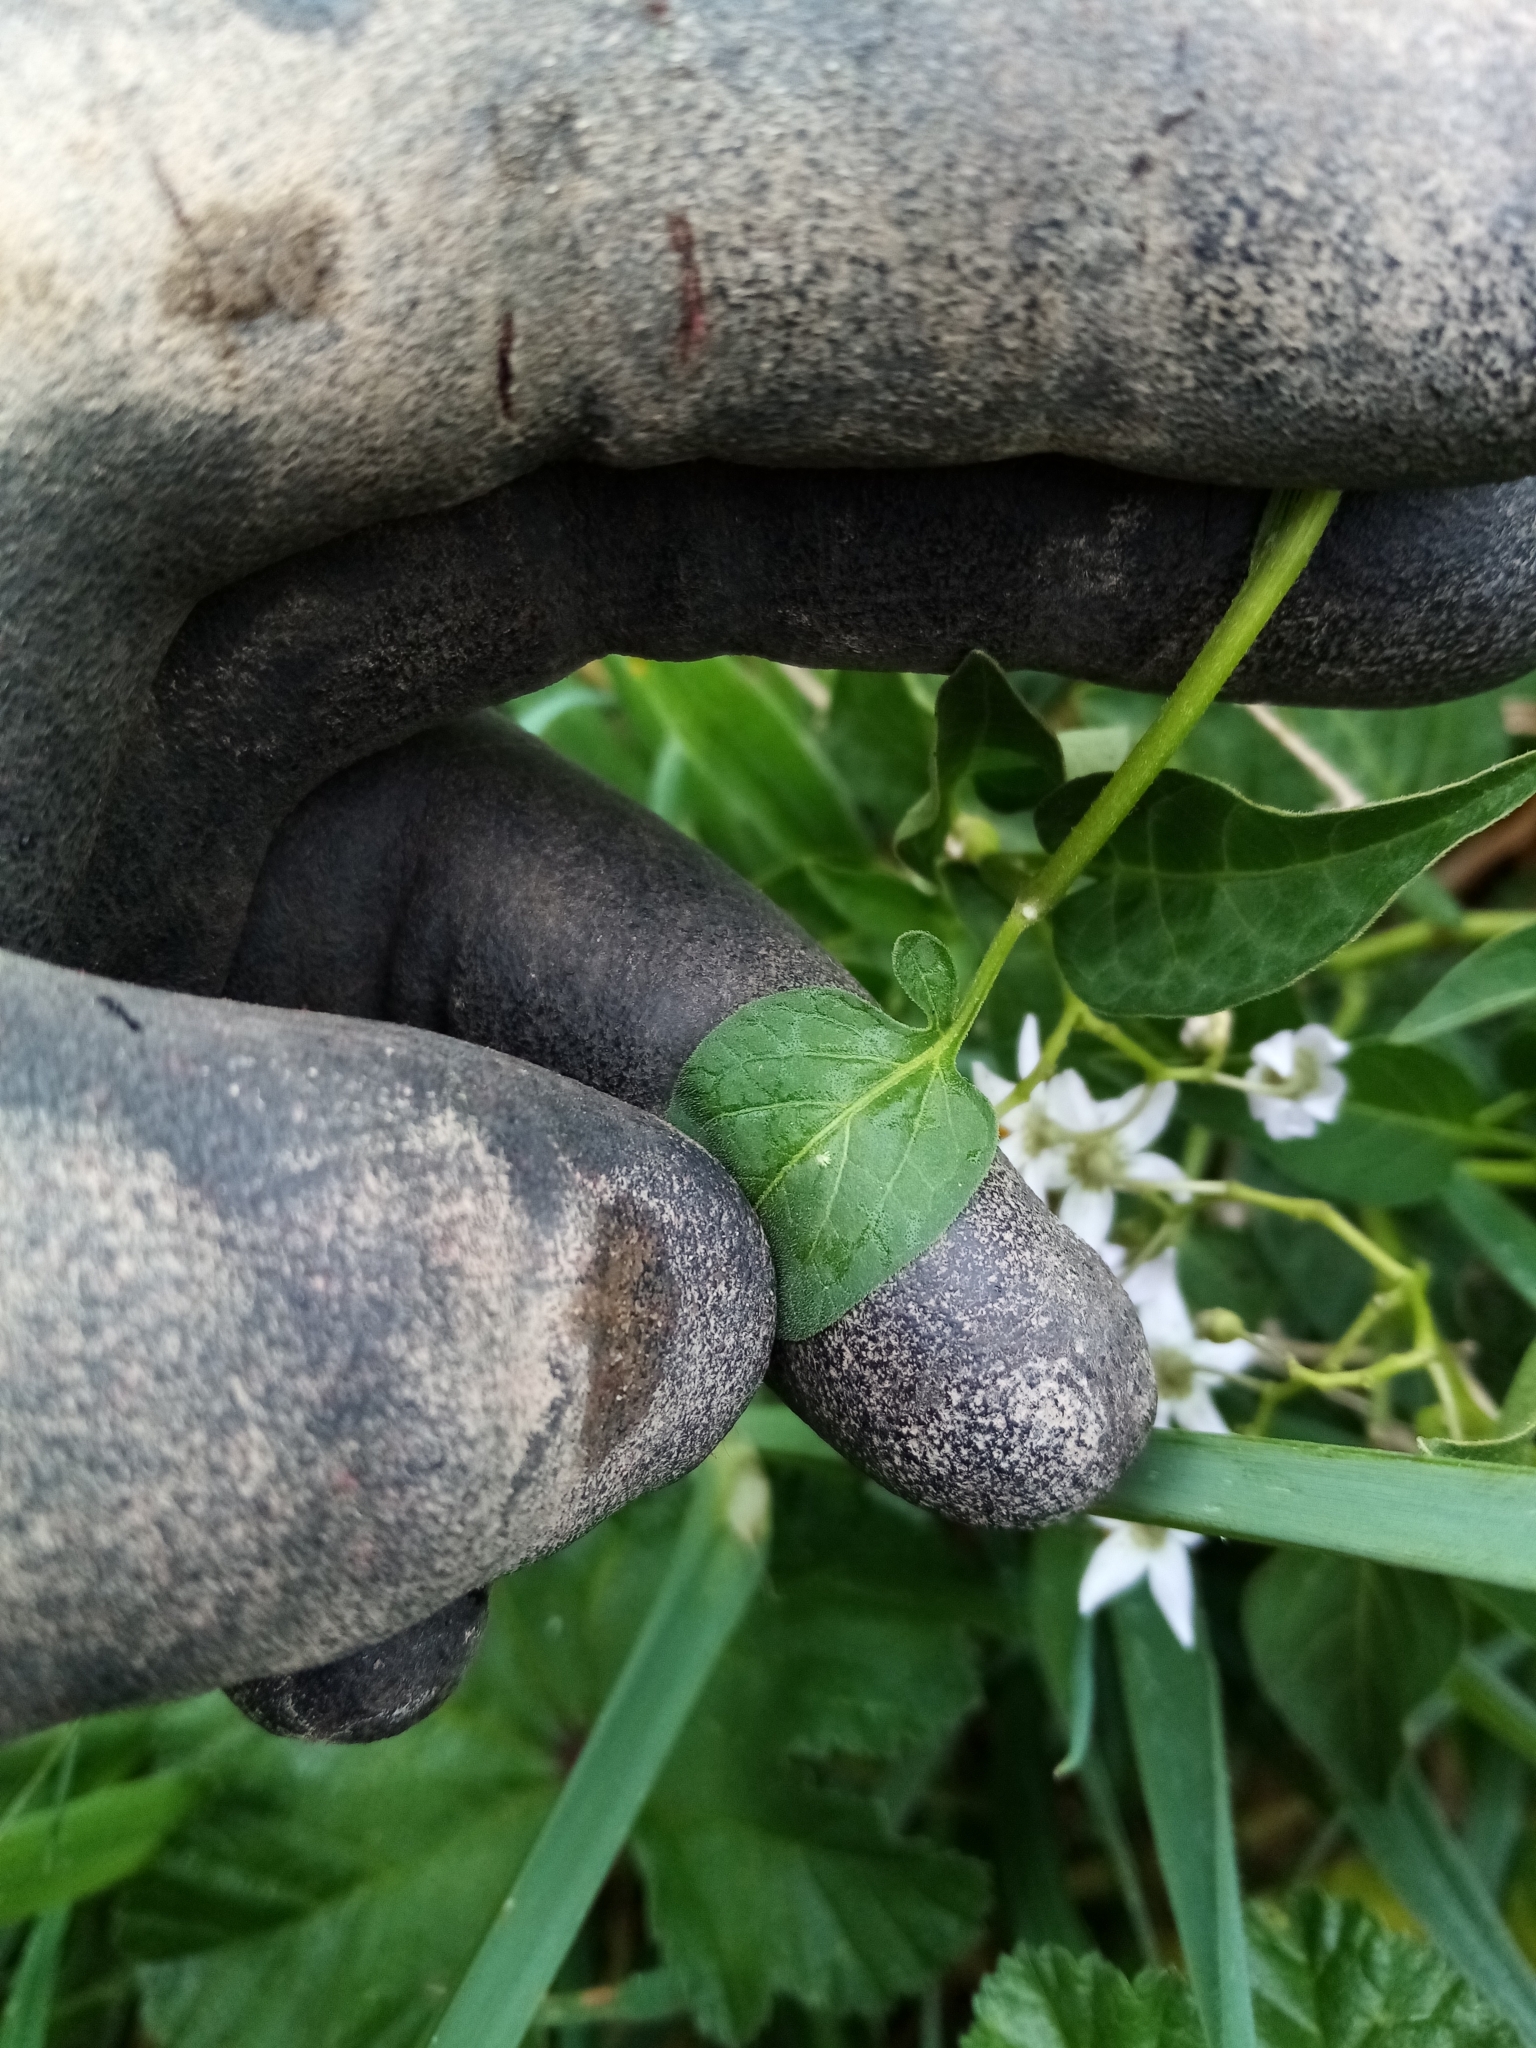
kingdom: Plantae
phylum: Tracheophyta
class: Magnoliopsida
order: Solanales
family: Solanaceae
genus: Solanum
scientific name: Solanum dulcamara
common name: Climbing nightshade
